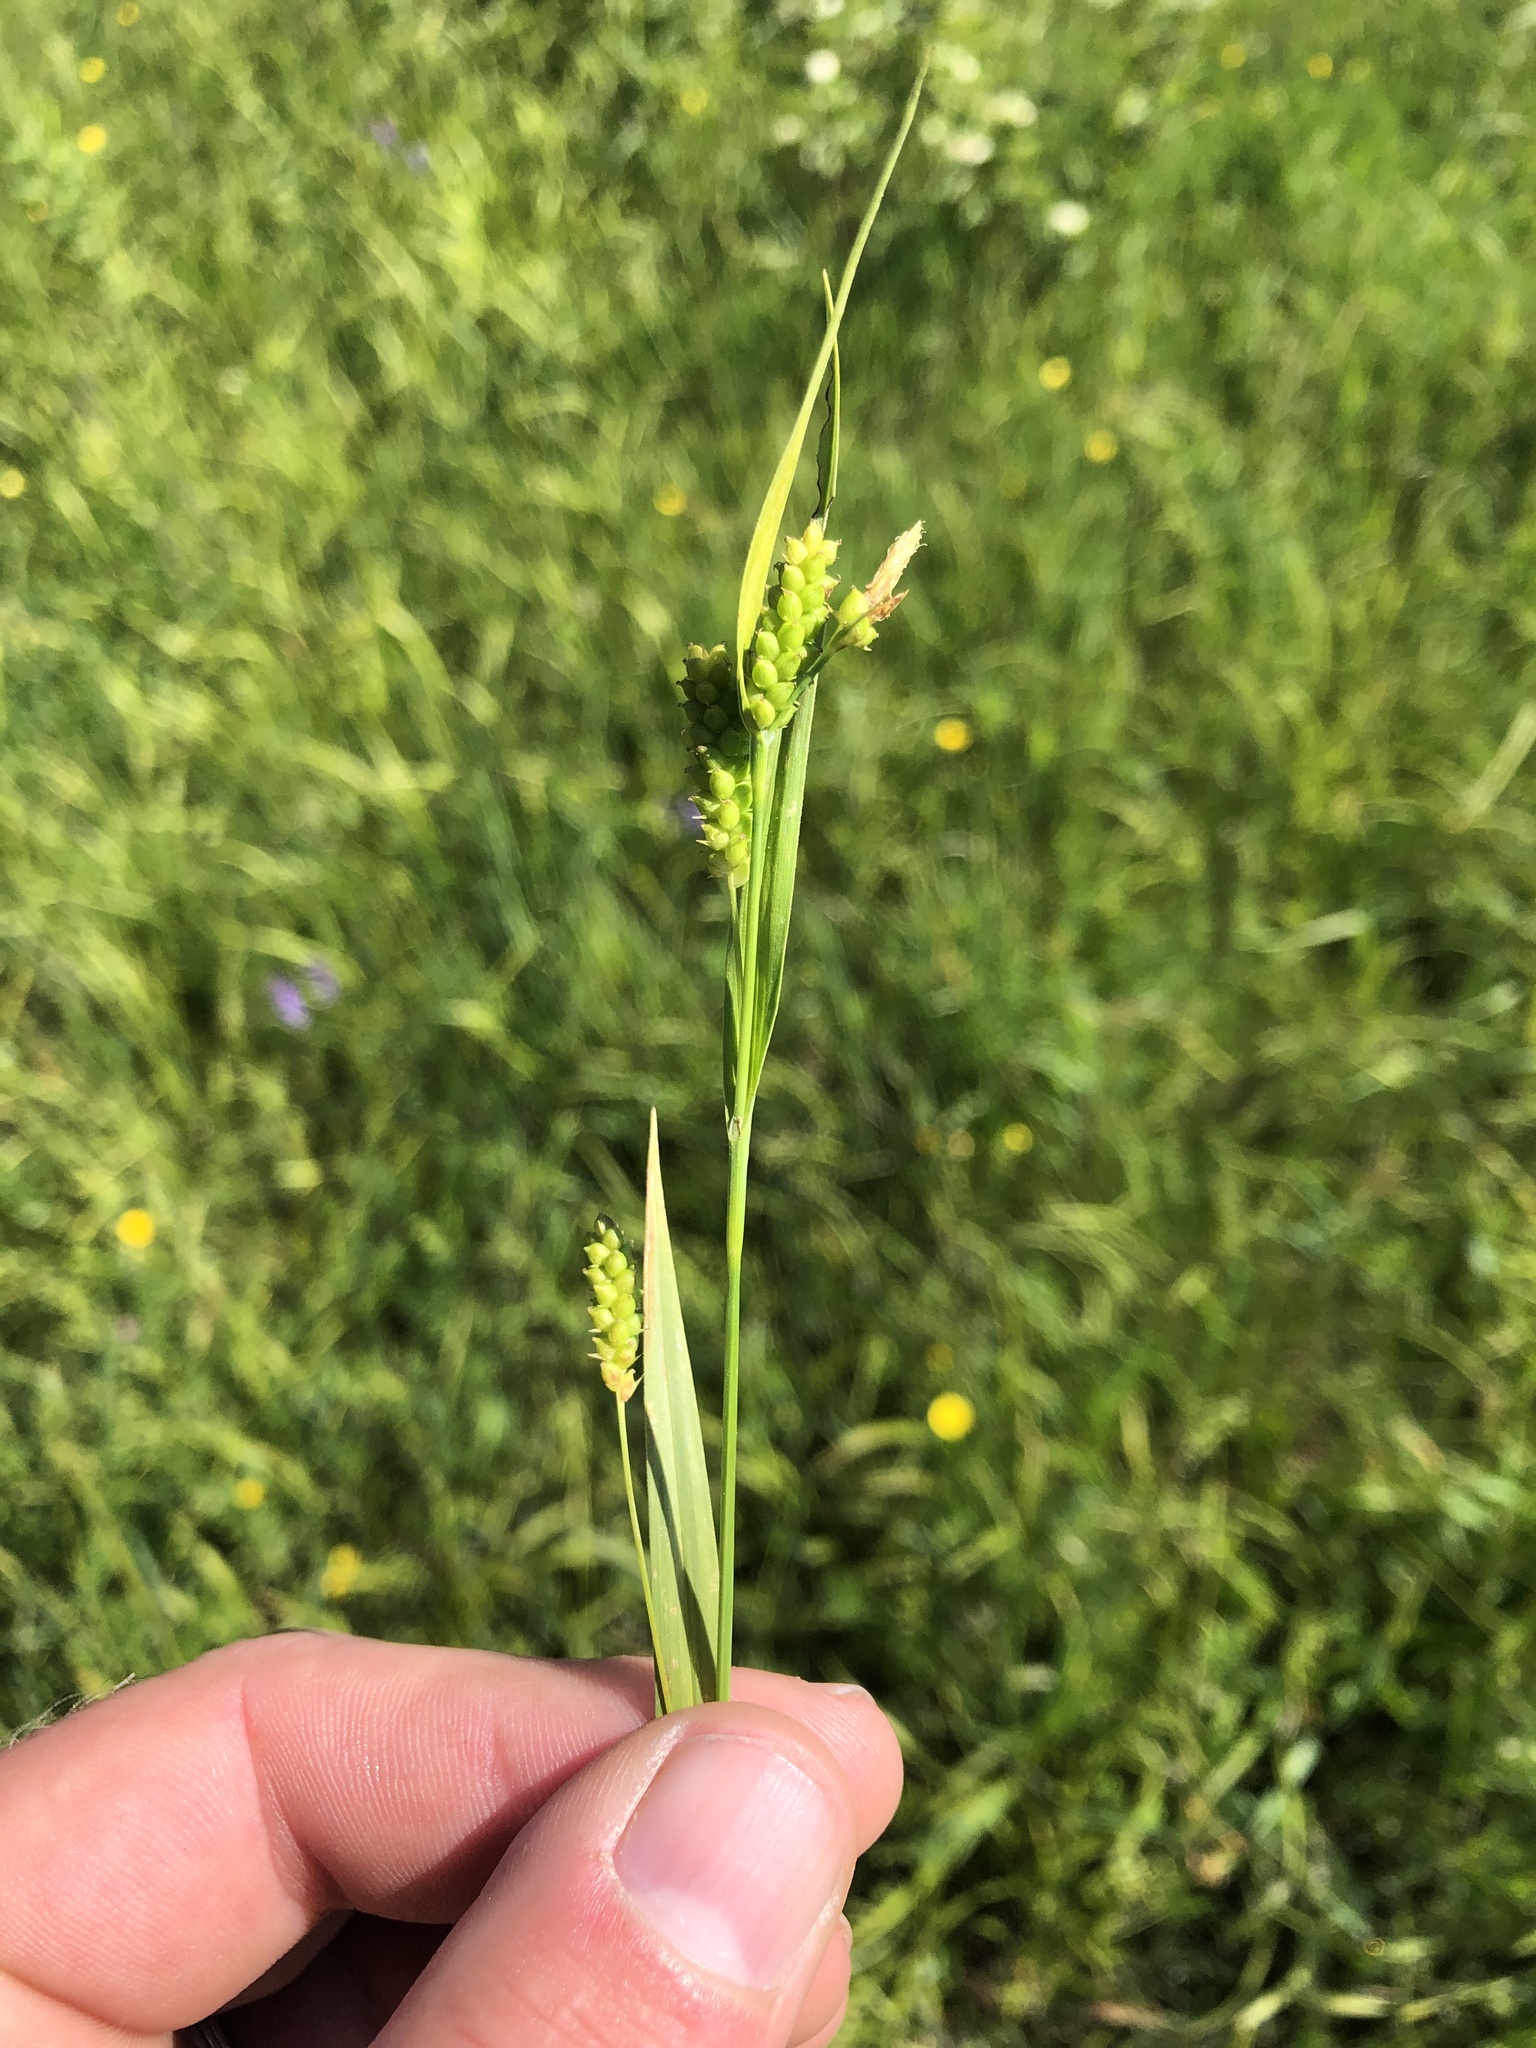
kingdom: Plantae
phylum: Tracheophyta
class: Liliopsida
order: Poales
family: Cyperaceae
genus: Carex
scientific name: Carex granularis
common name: Granular sedge
